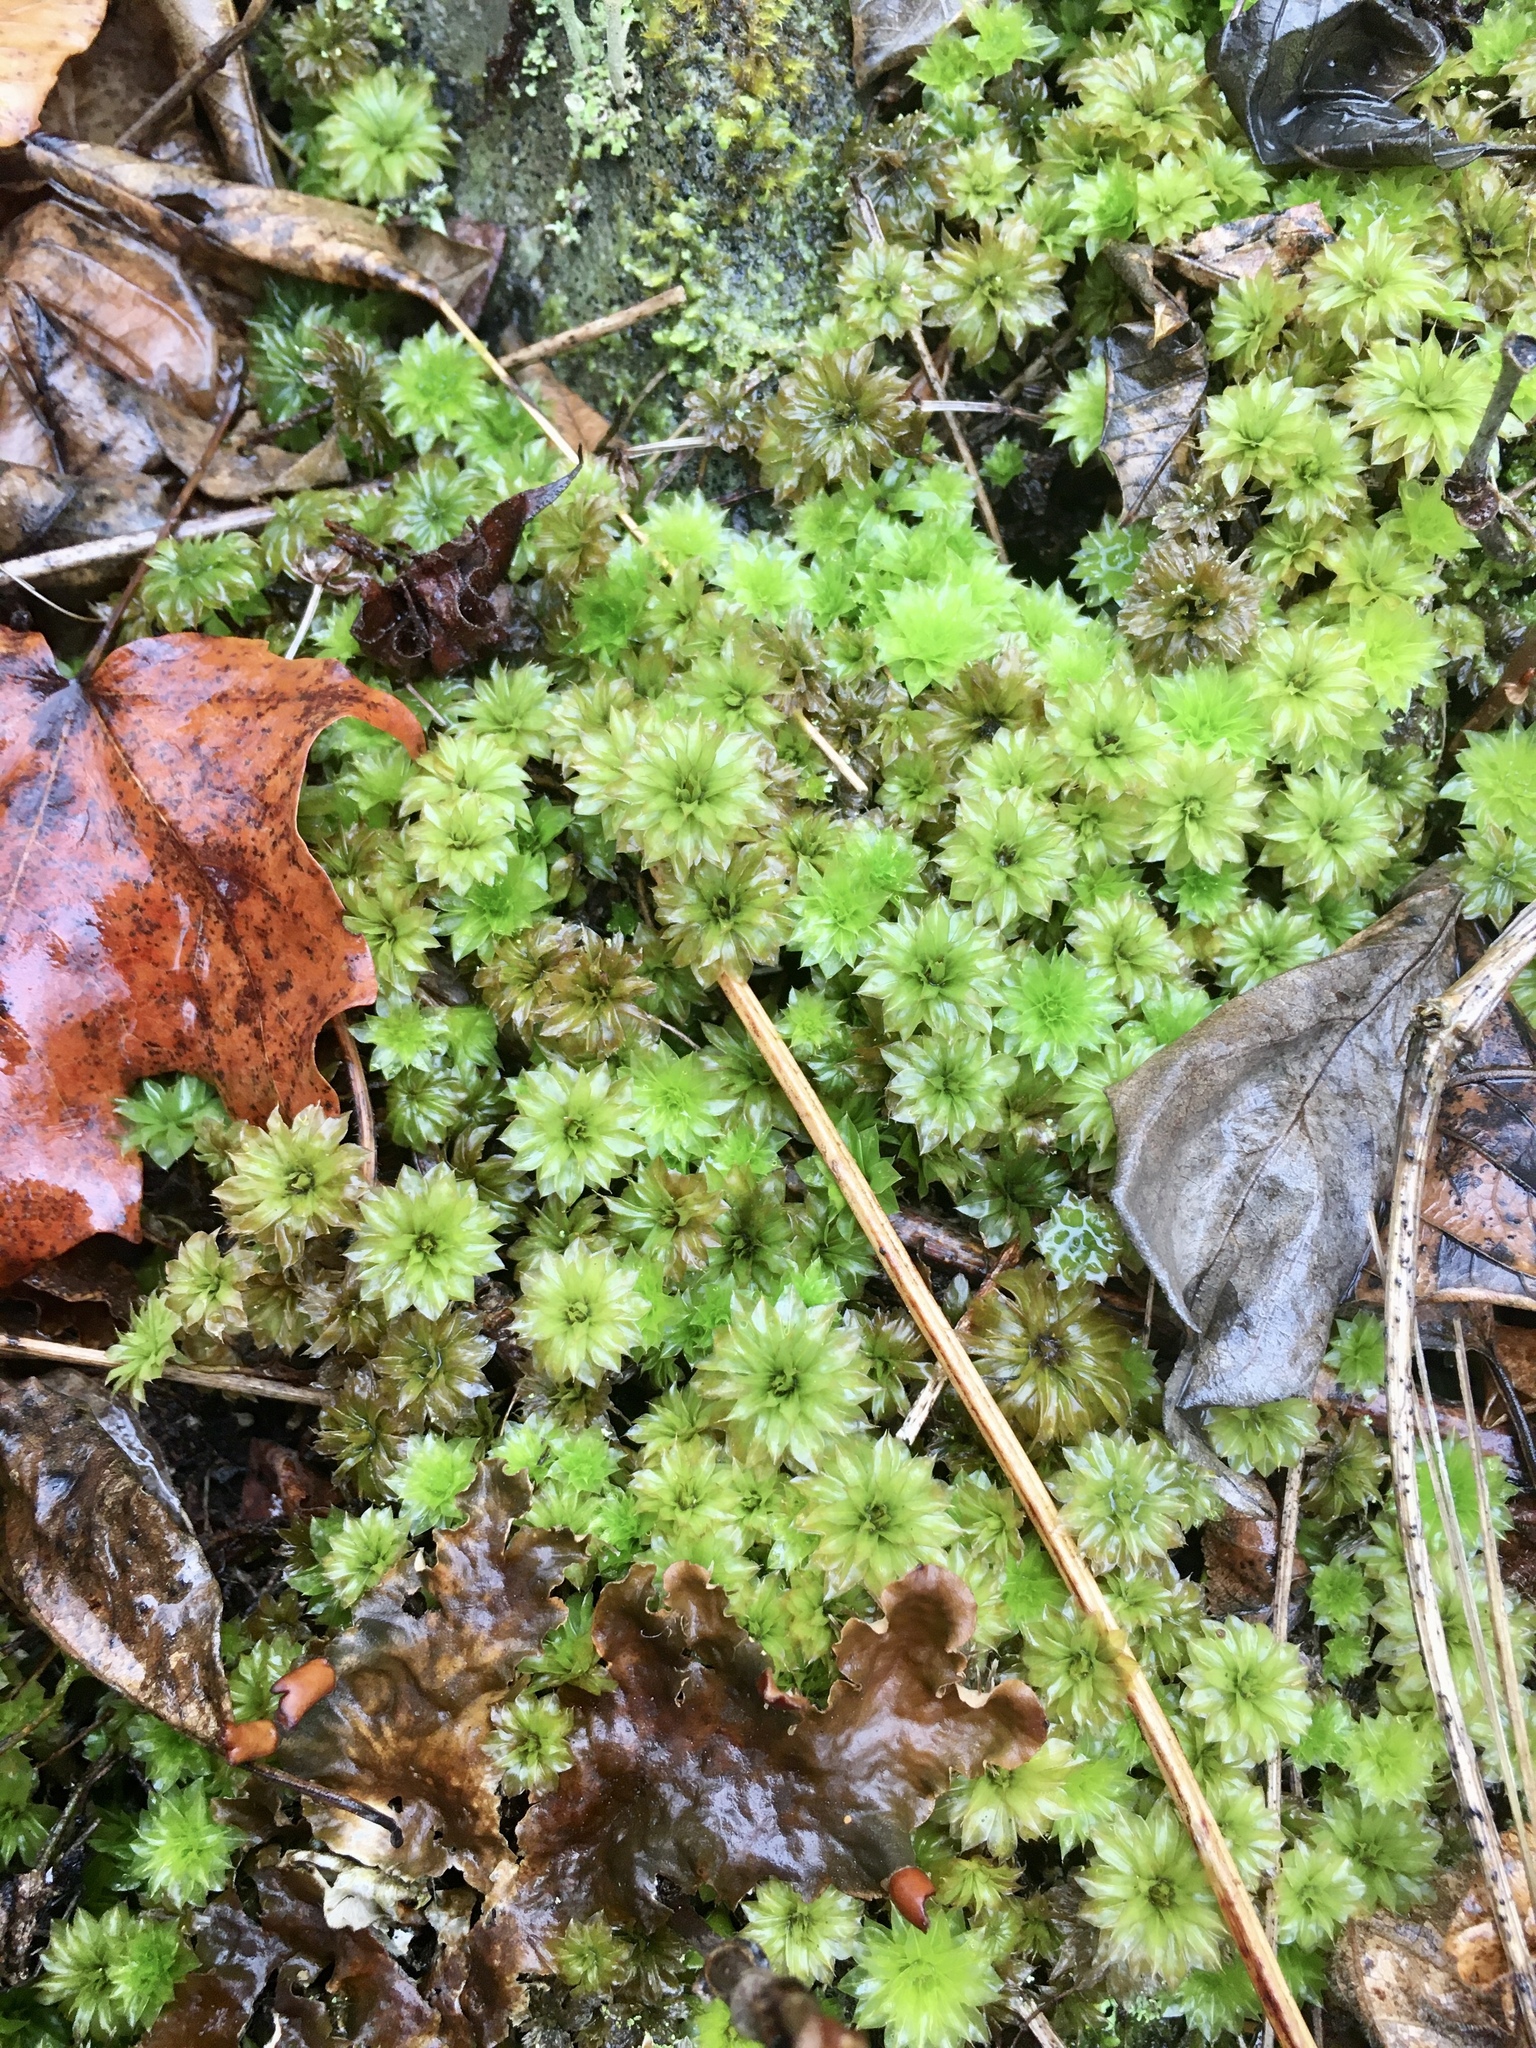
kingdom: Plantae
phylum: Bryophyta
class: Bryopsida
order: Bryales
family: Bryaceae
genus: Rhodobryum
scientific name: Rhodobryum ontariense
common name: Ontario rhodobryum moss
